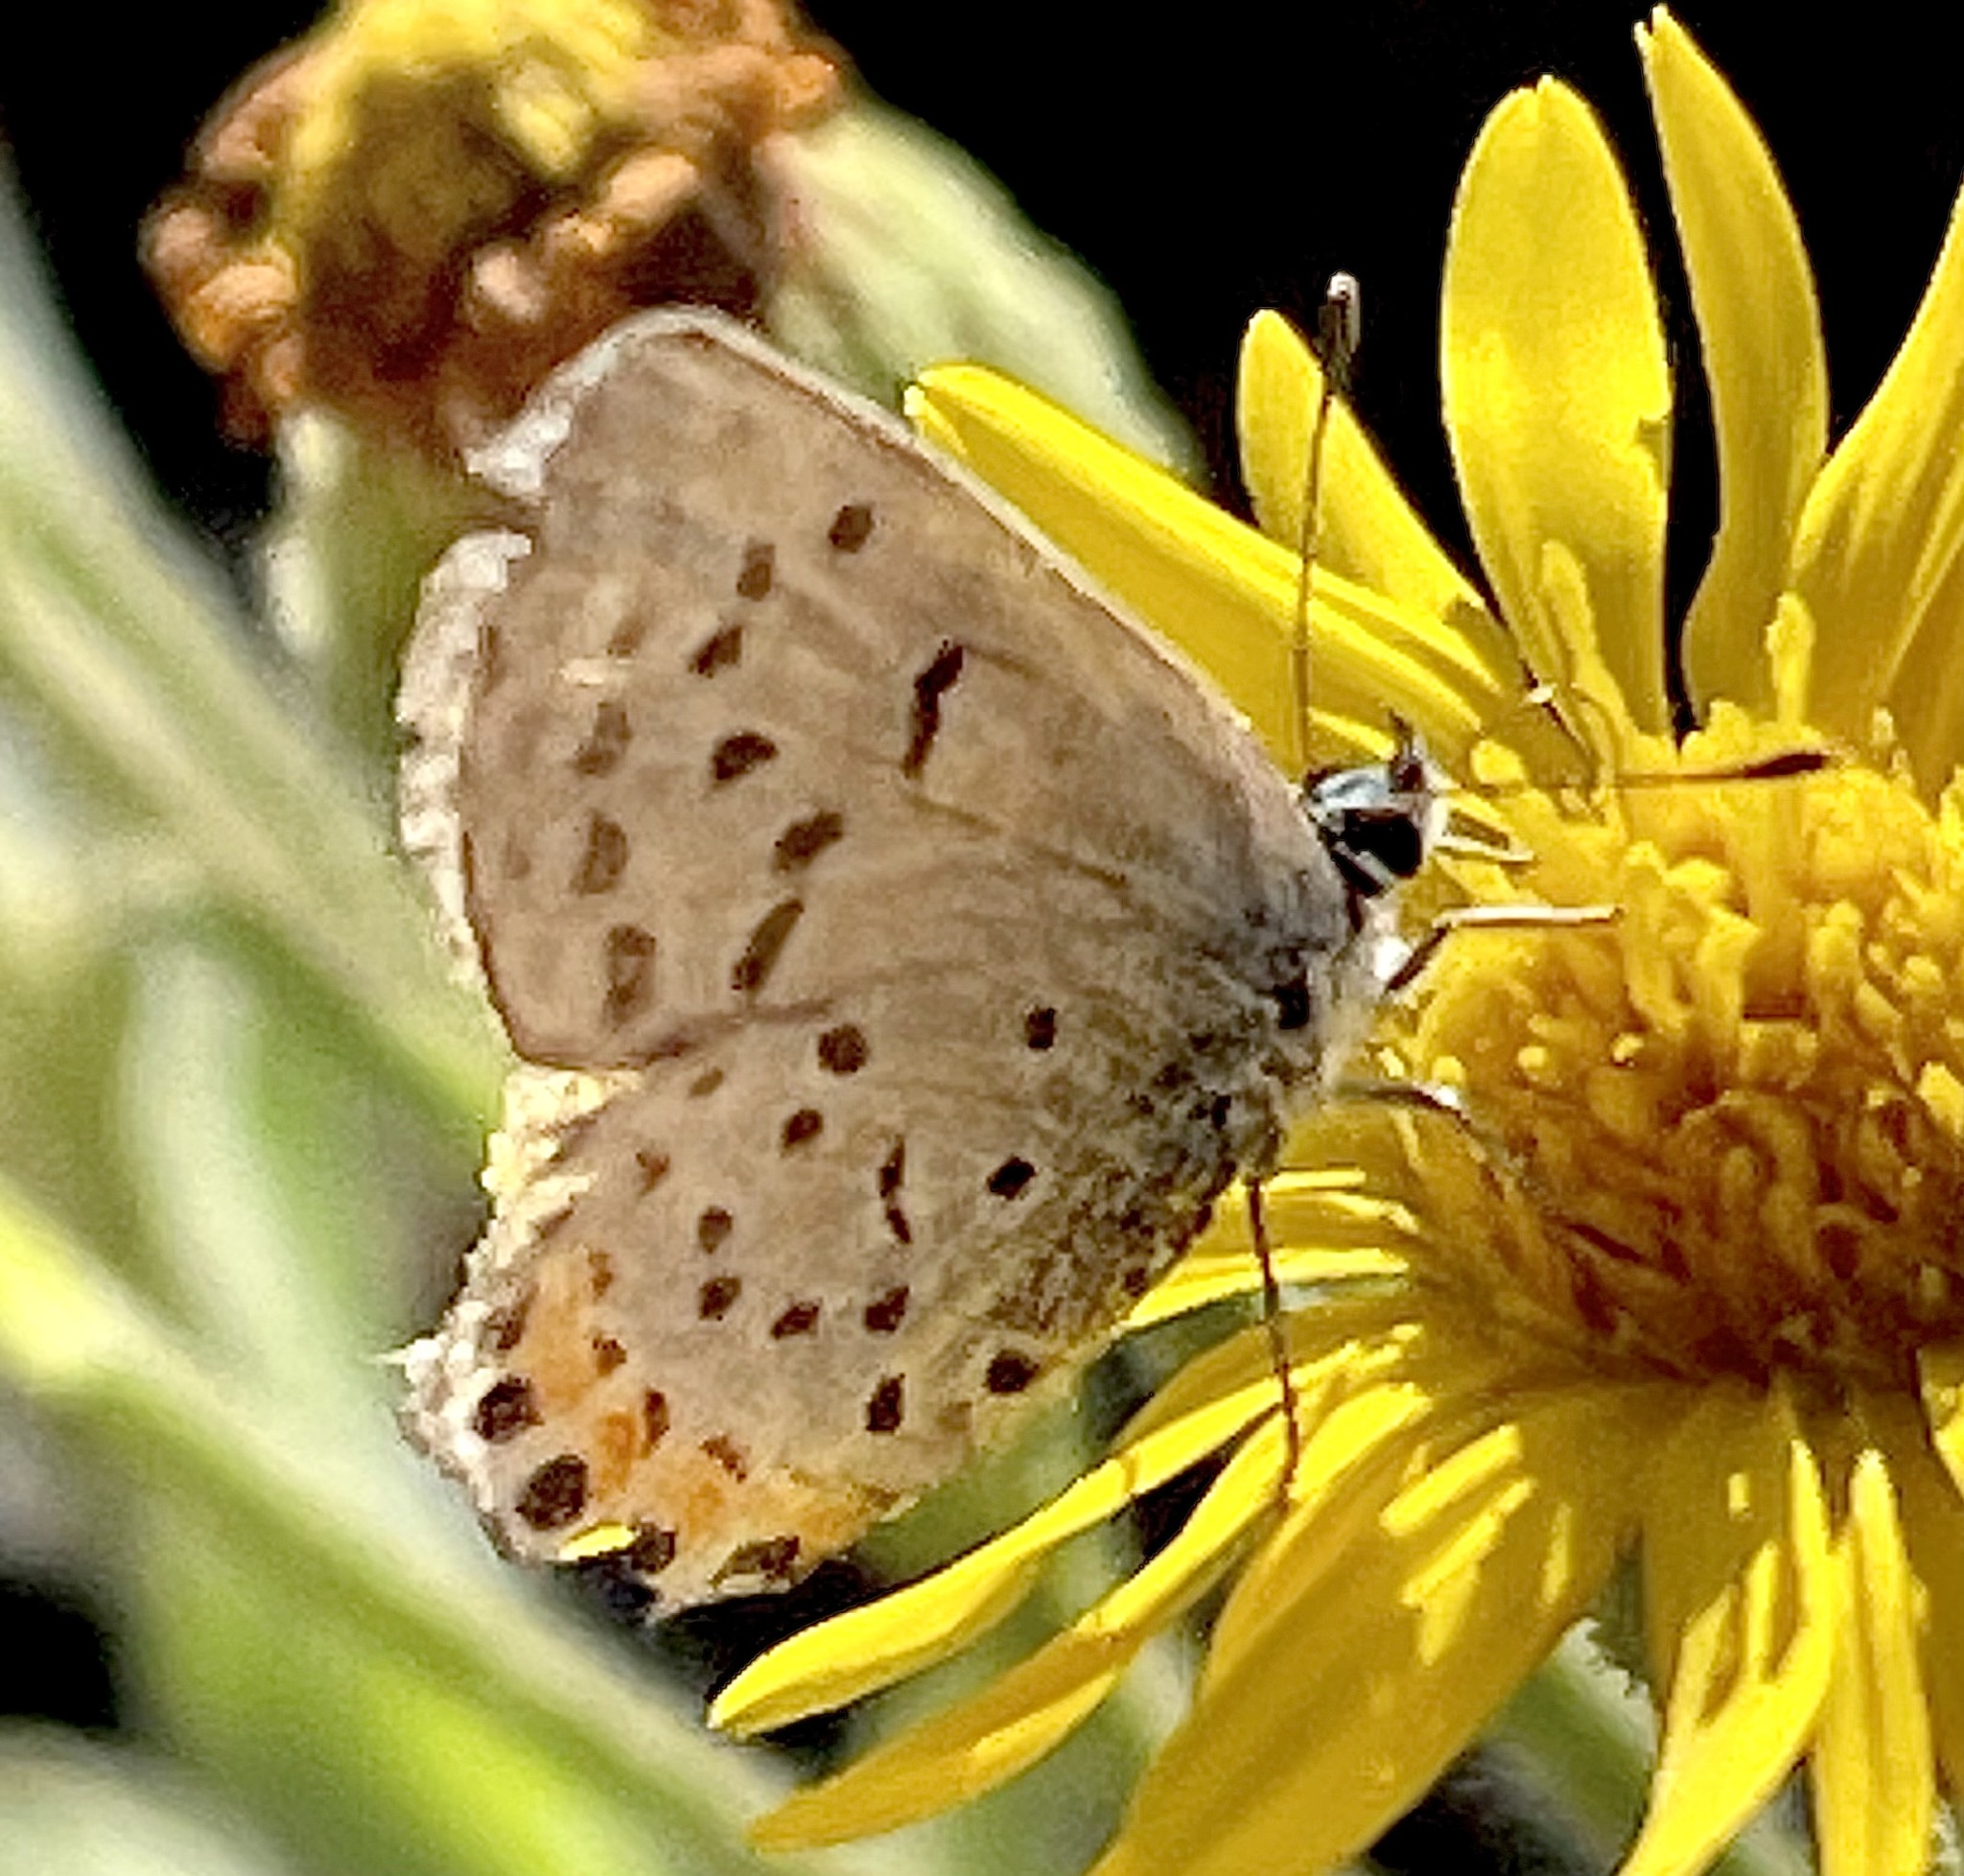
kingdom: Plantae
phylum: Tracheophyta
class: Magnoliopsida
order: Asterales
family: Asteraceae
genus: Heterotheca
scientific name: Heterotheca grandiflora
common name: Telegraphweed
